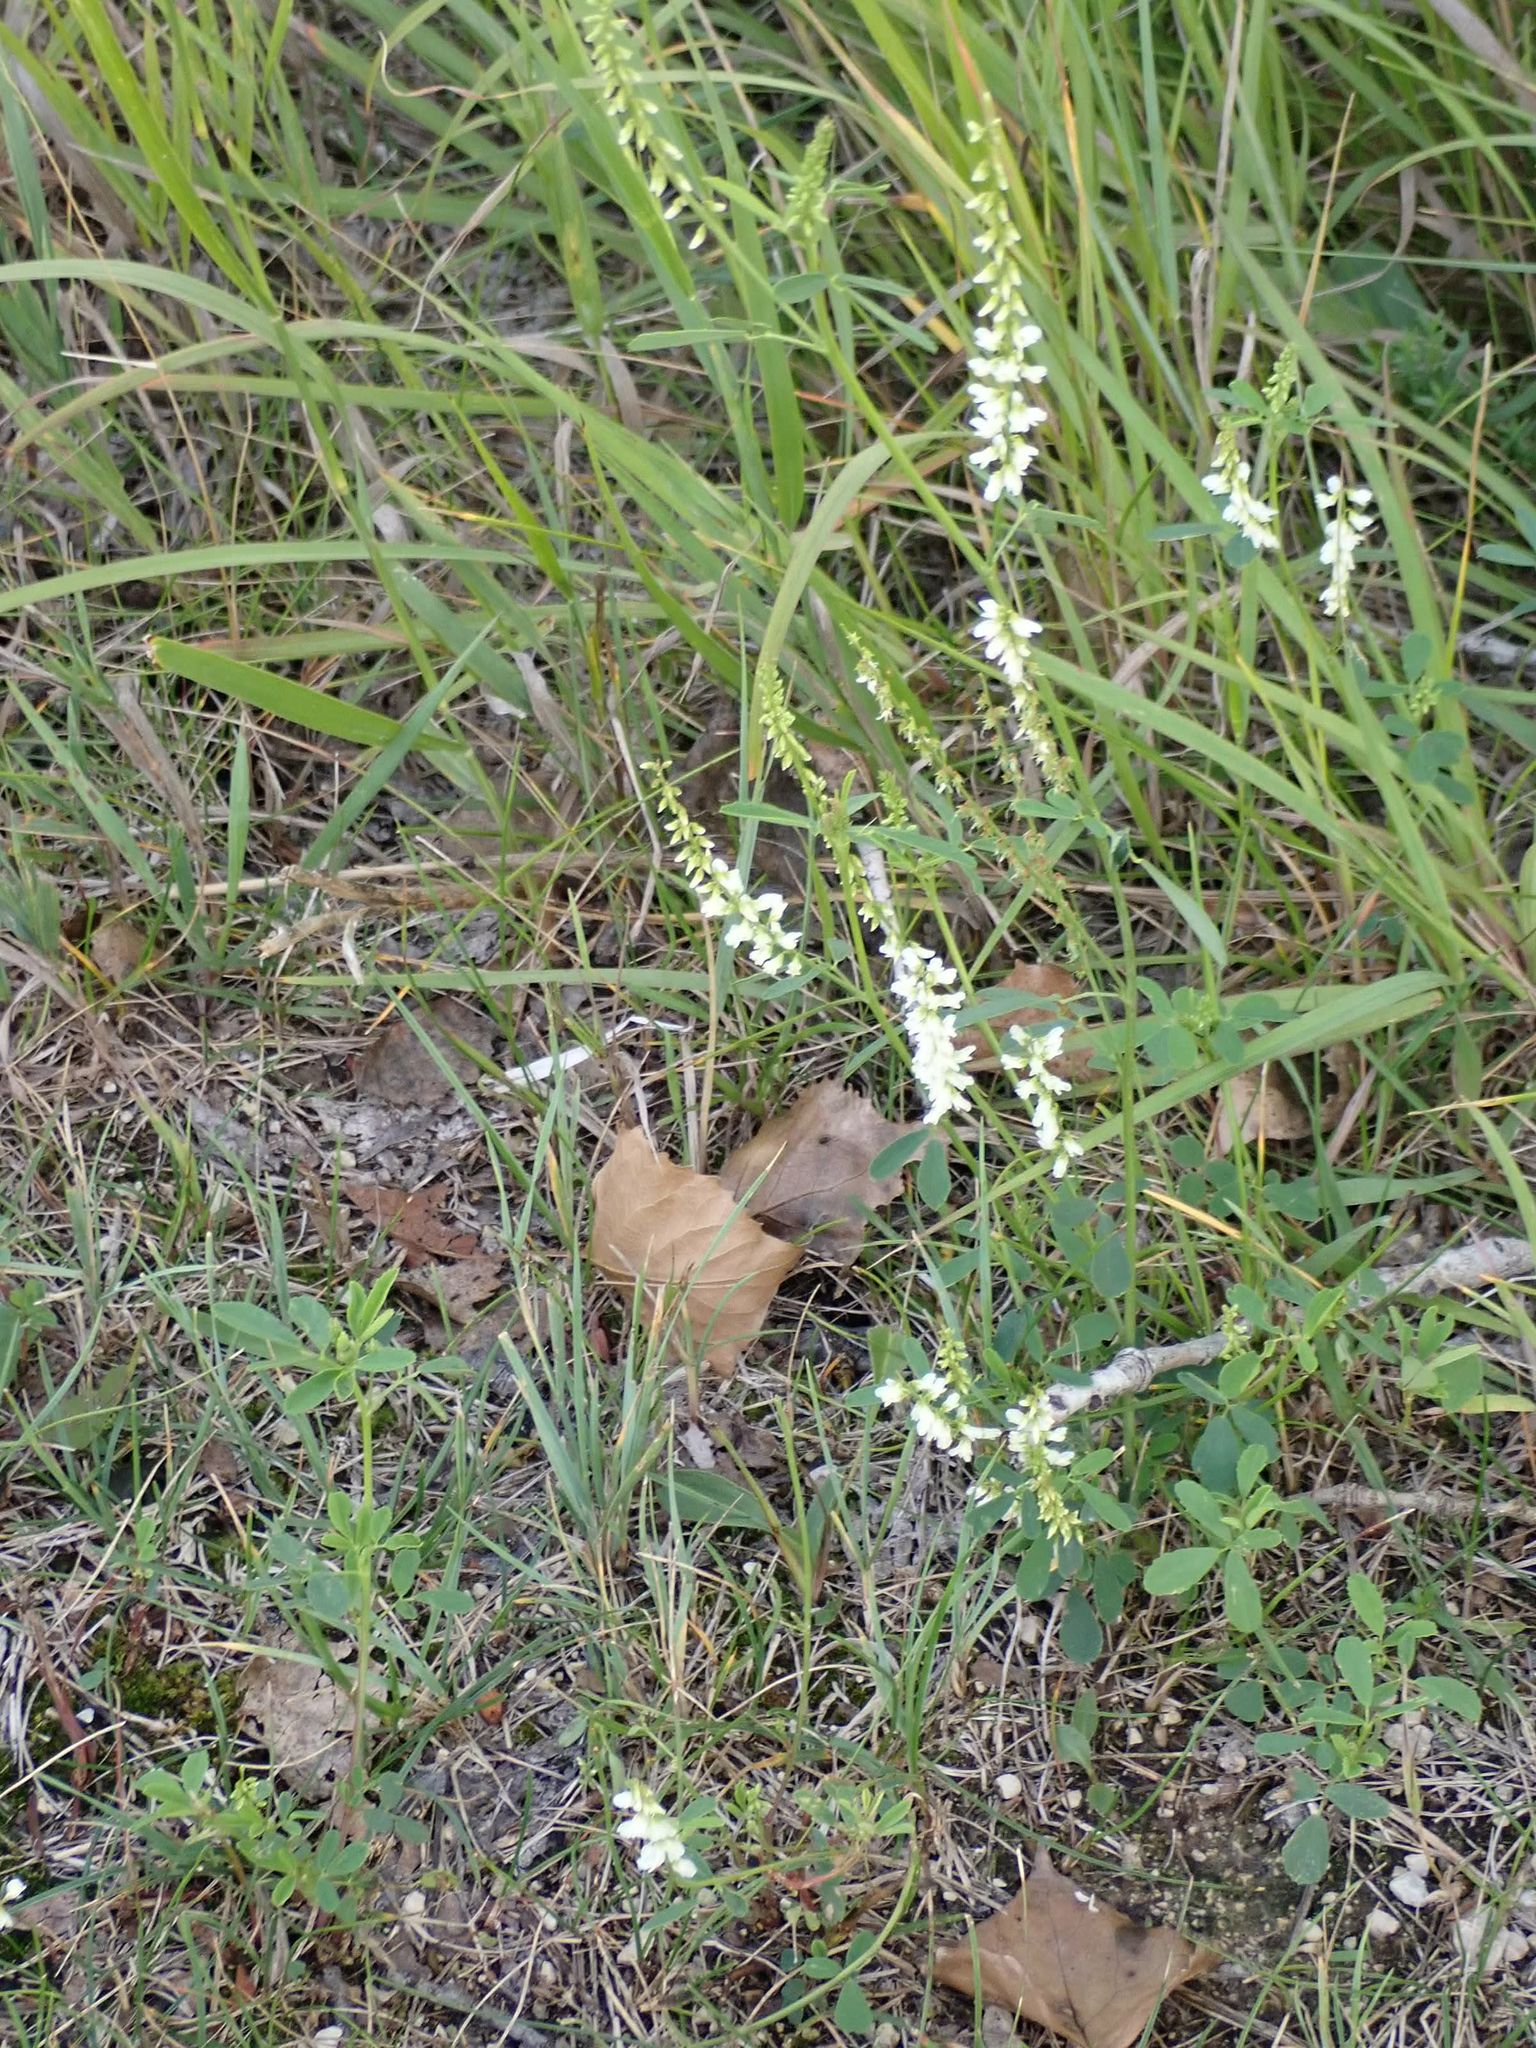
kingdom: Plantae
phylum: Tracheophyta
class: Magnoliopsida
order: Fabales
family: Fabaceae
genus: Melilotus
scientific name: Melilotus albus
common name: White melilot
